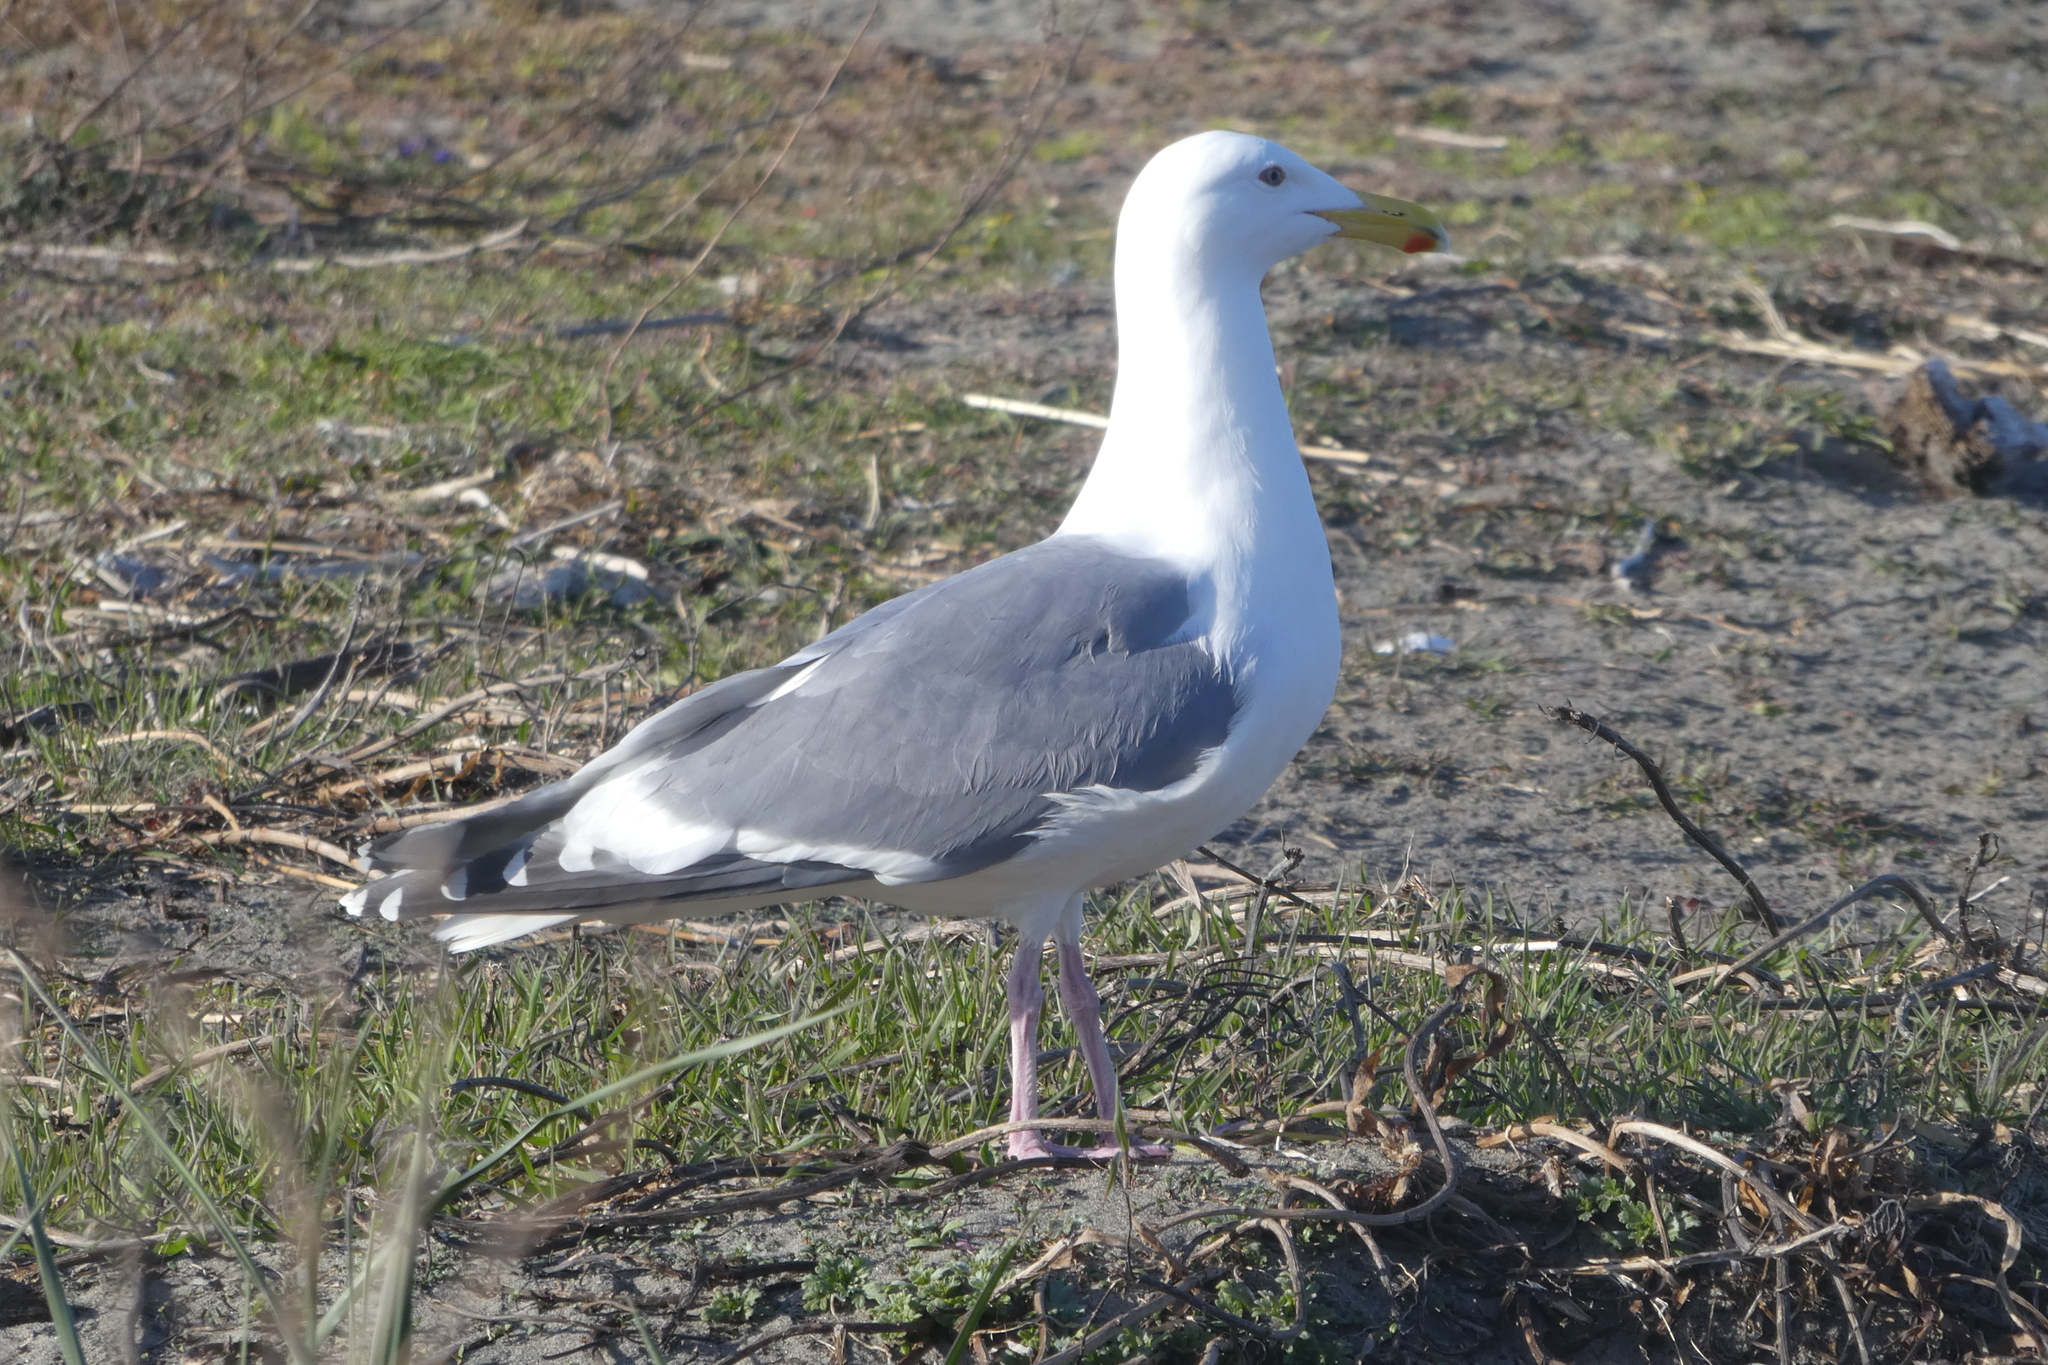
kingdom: Animalia
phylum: Chordata
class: Aves
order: Charadriiformes
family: Laridae
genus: Larus
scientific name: Larus
